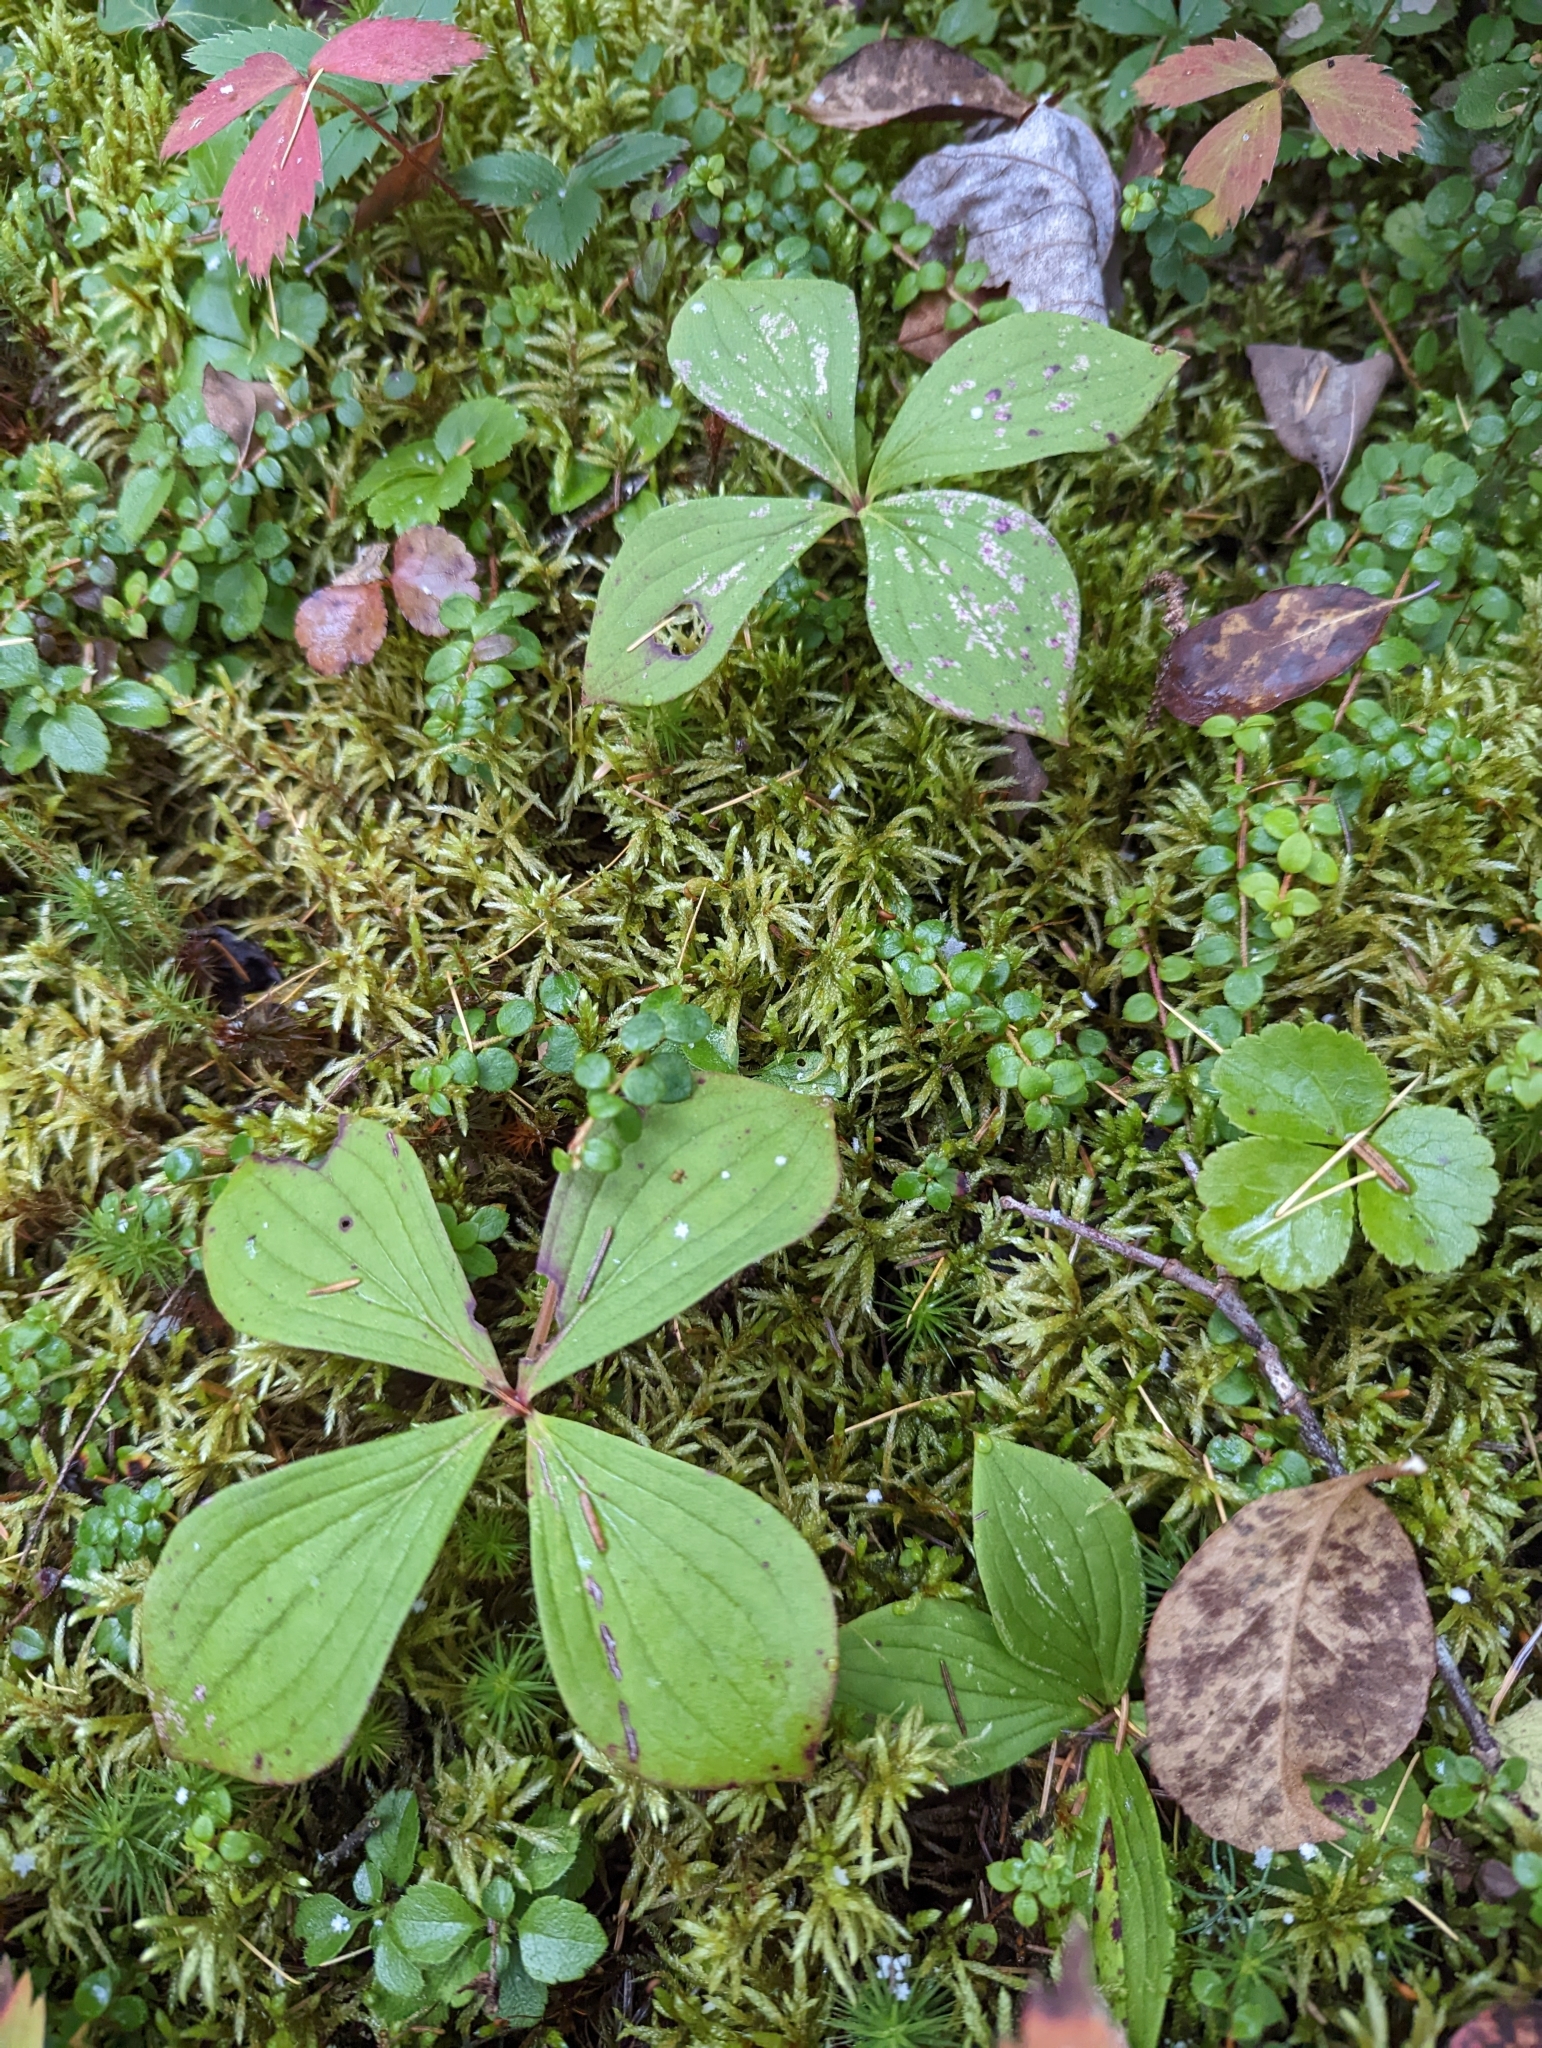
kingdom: Plantae
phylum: Tracheophyta
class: Magnoliopsida
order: Cornales
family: Cornaceae
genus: Cornus
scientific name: Cornus canadensis
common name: Creeping dogwood
